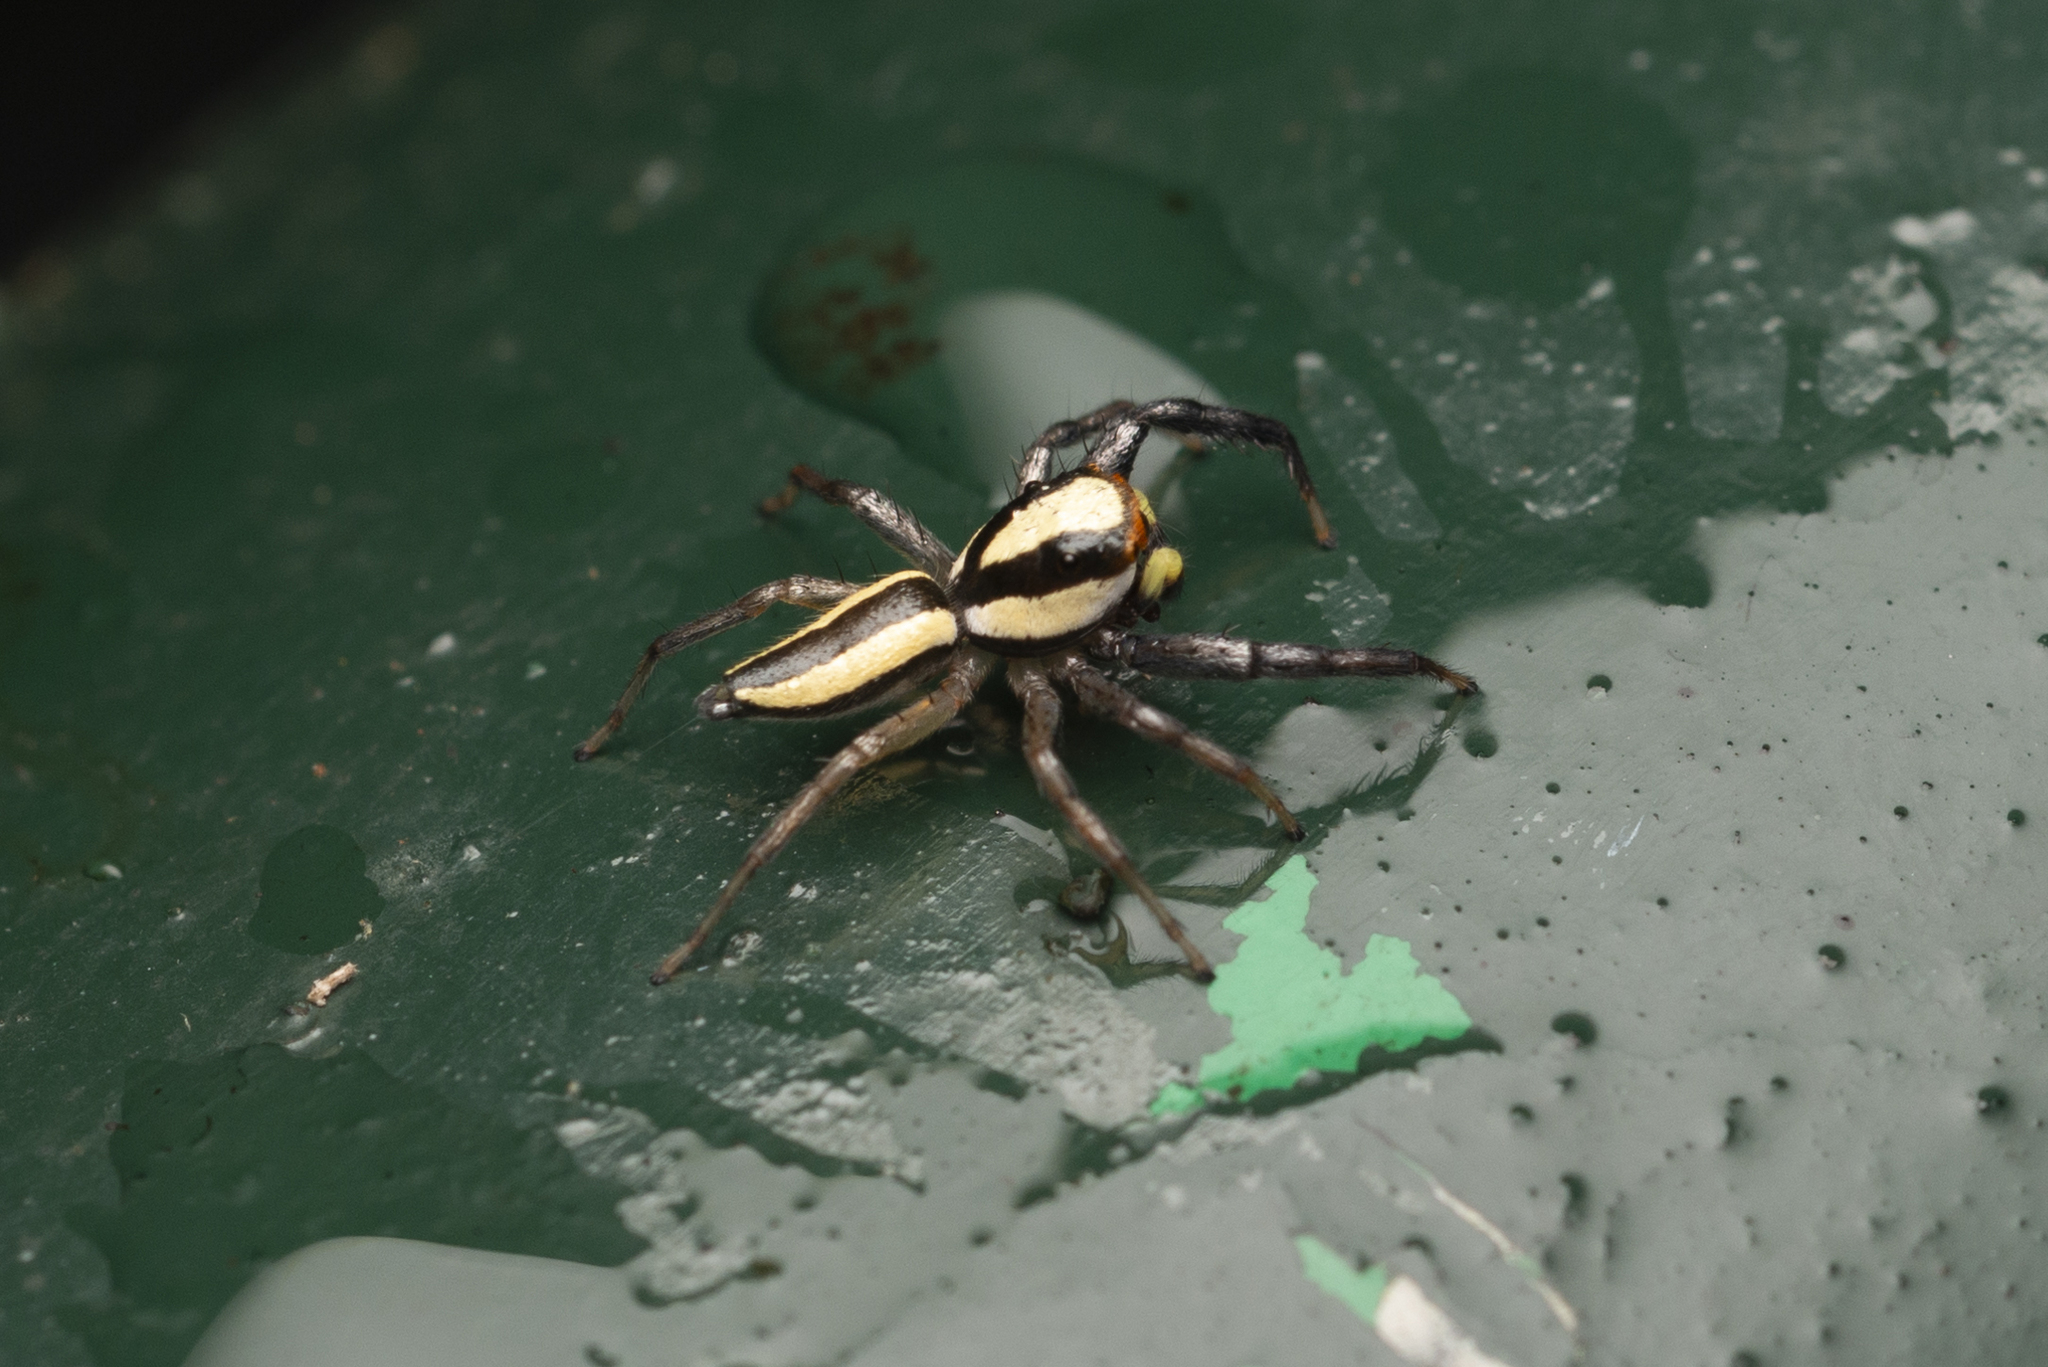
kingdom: Animalia
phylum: Arthropoda
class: Arachnida
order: Araneae
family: Salticidae
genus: Epocilla
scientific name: Epocilla blairei
